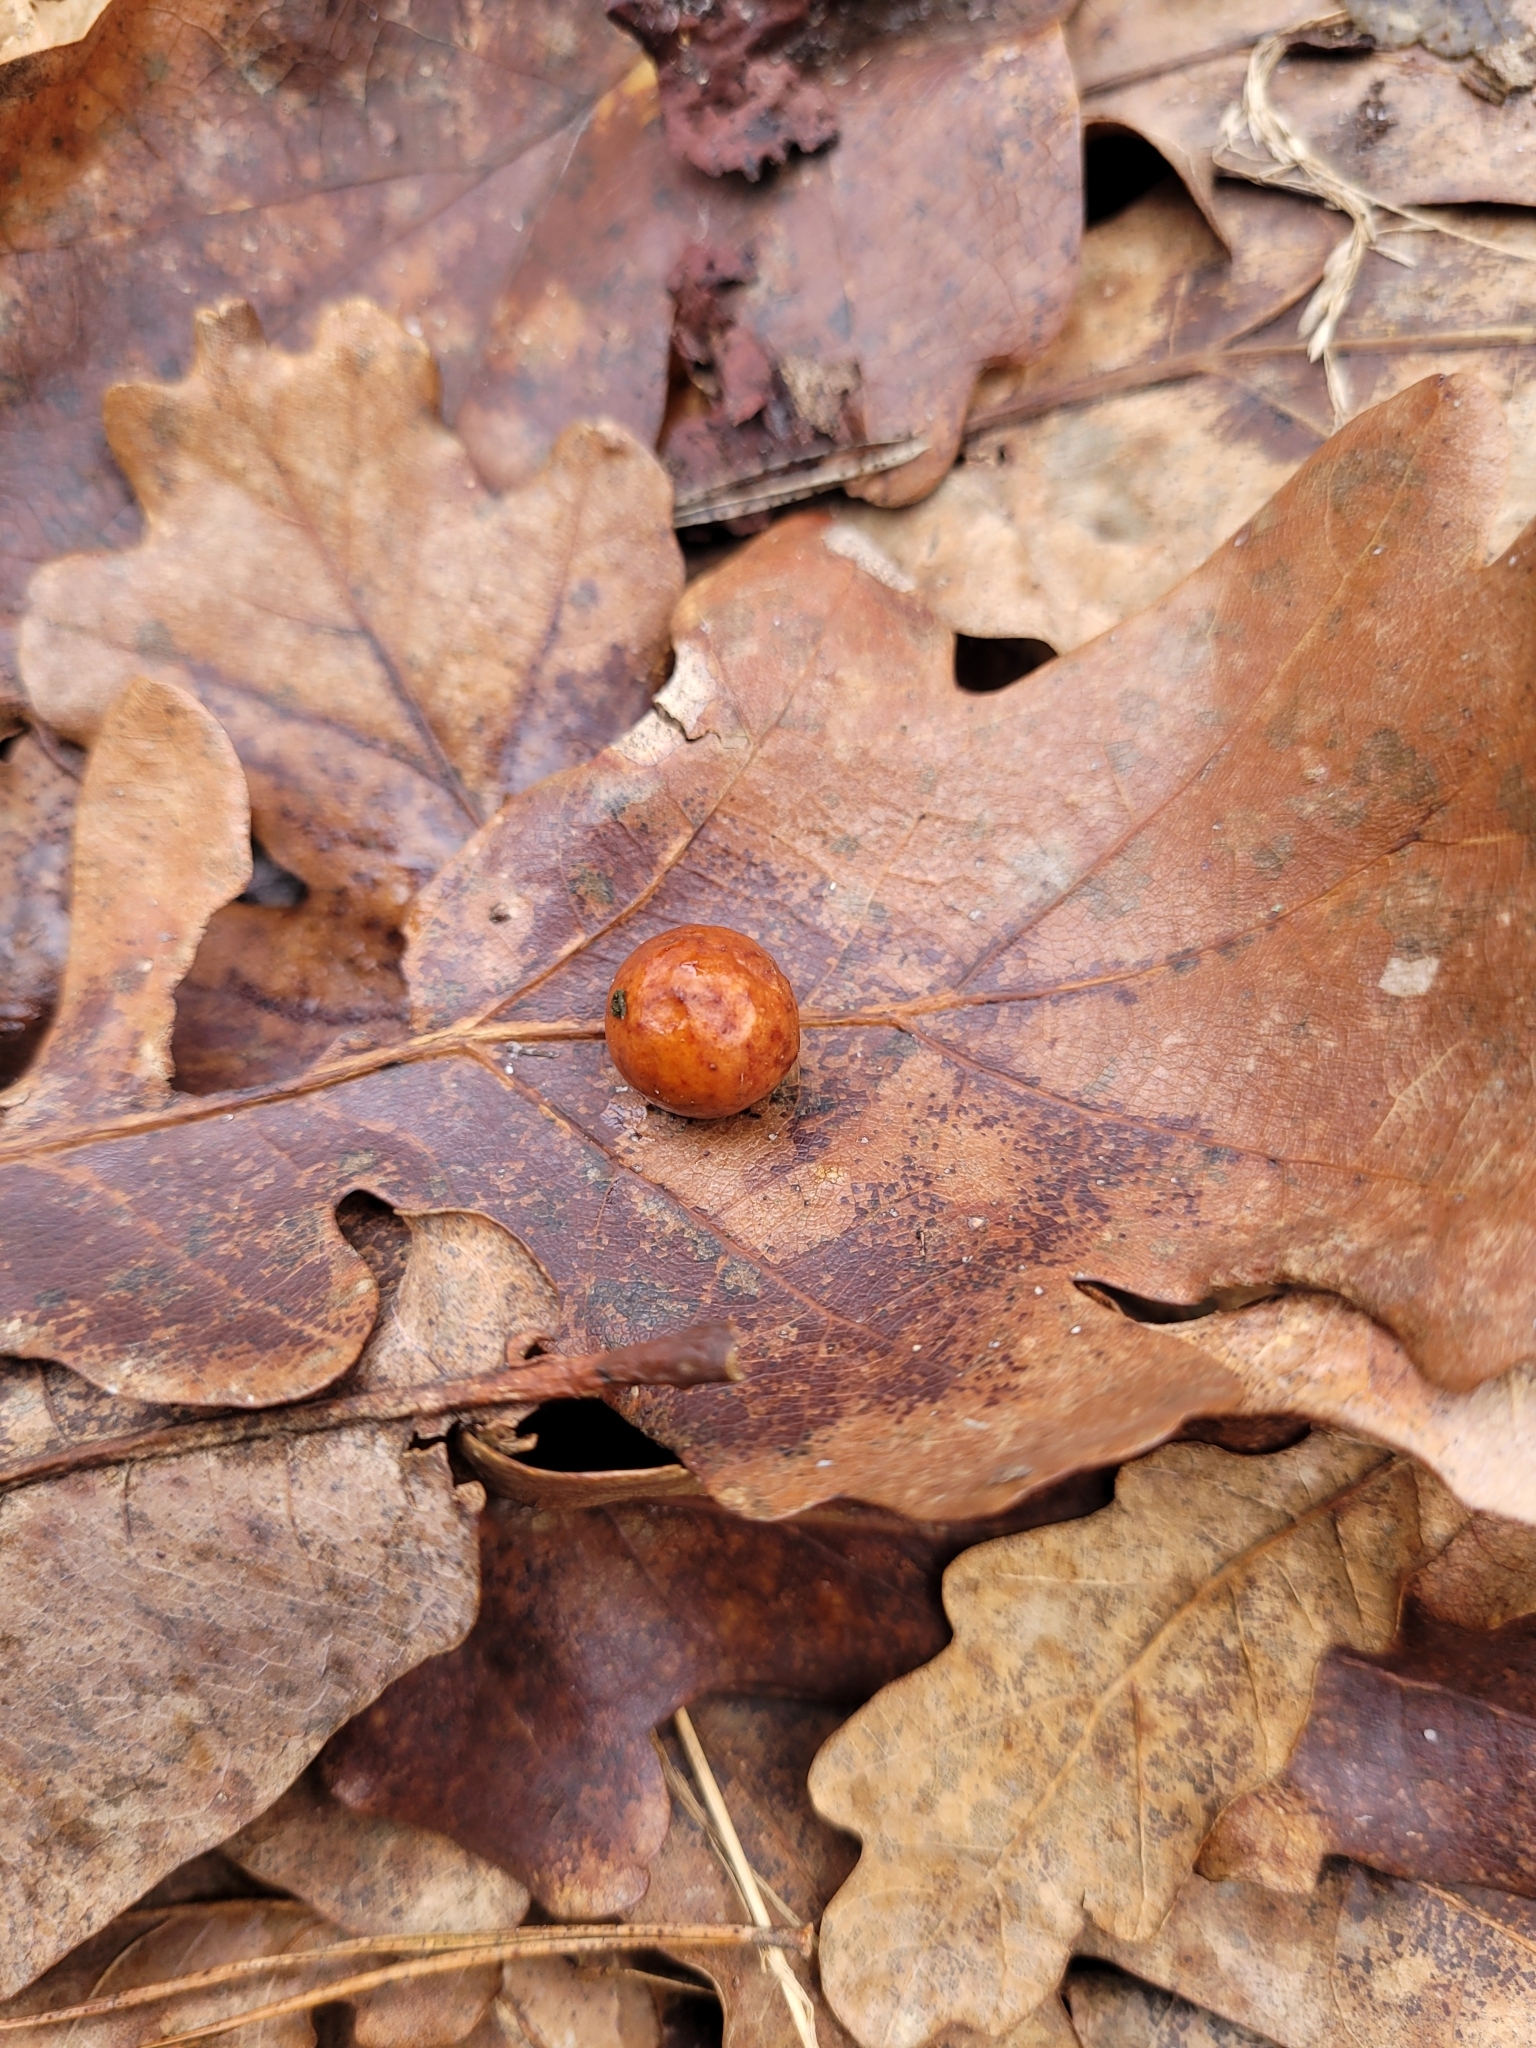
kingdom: Animalia
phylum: Arthropoda
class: Insecta
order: Hymenoptera
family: Cynipidae
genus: Cynips
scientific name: Cynips quercusfolii
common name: Cherry gall
